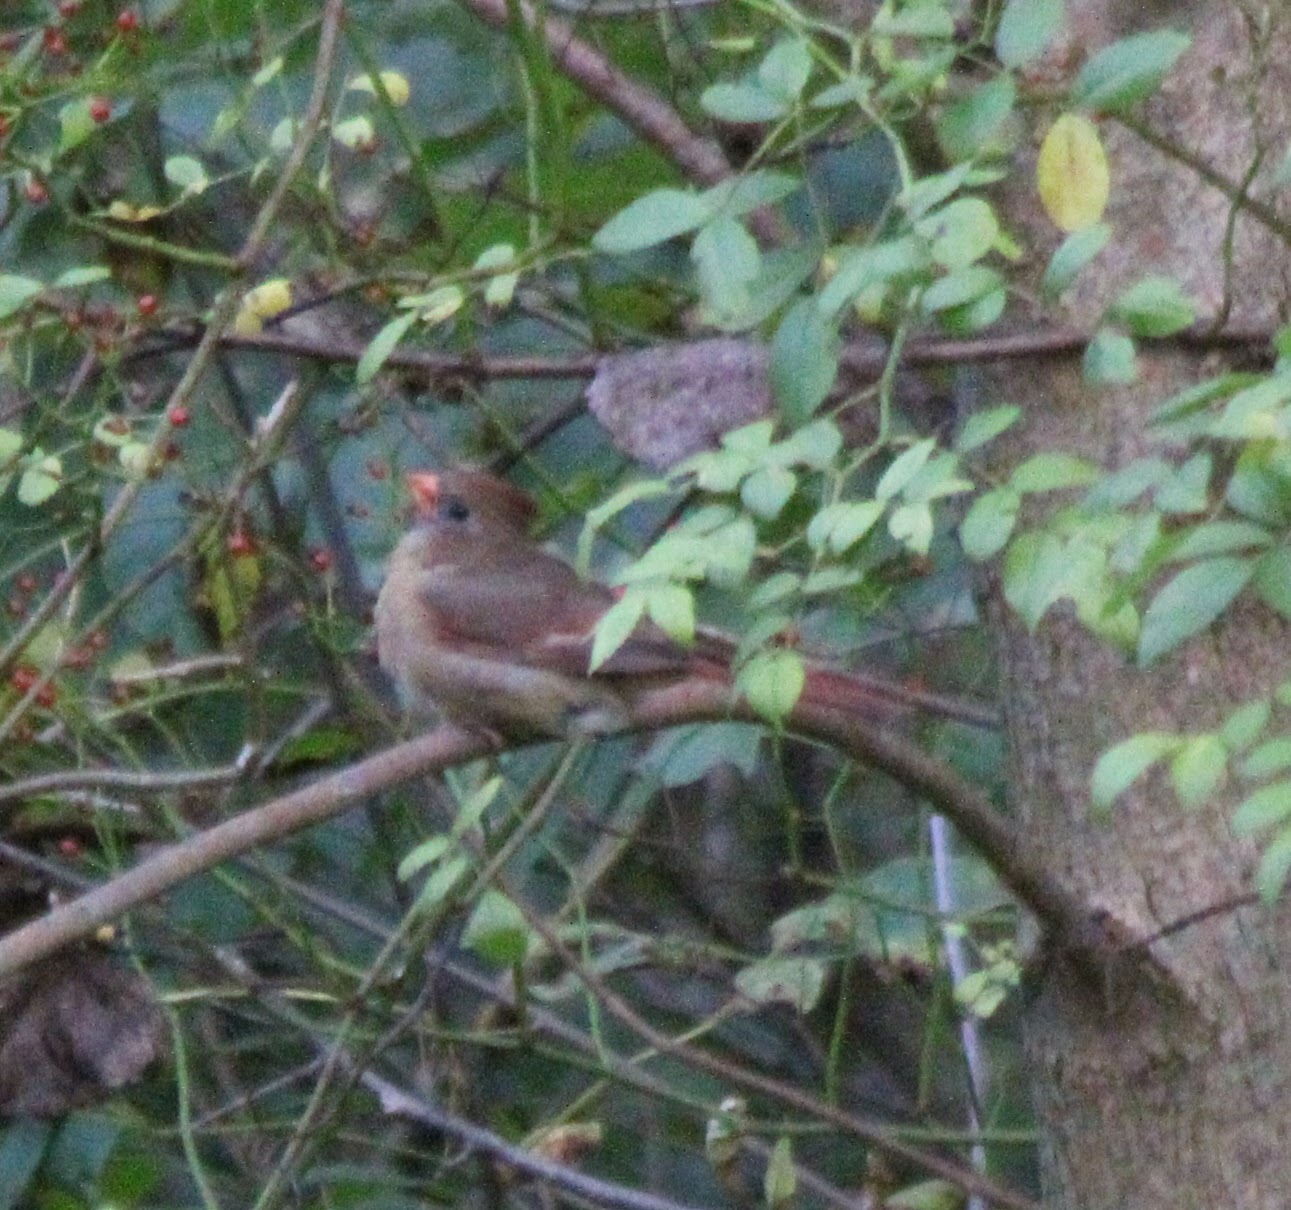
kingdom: Animalia
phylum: Chordata
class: Aves
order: Passeriformes
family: Cardinalidae
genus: Cardinalis
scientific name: Cardinalis cardinalis
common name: Northern cardinal
